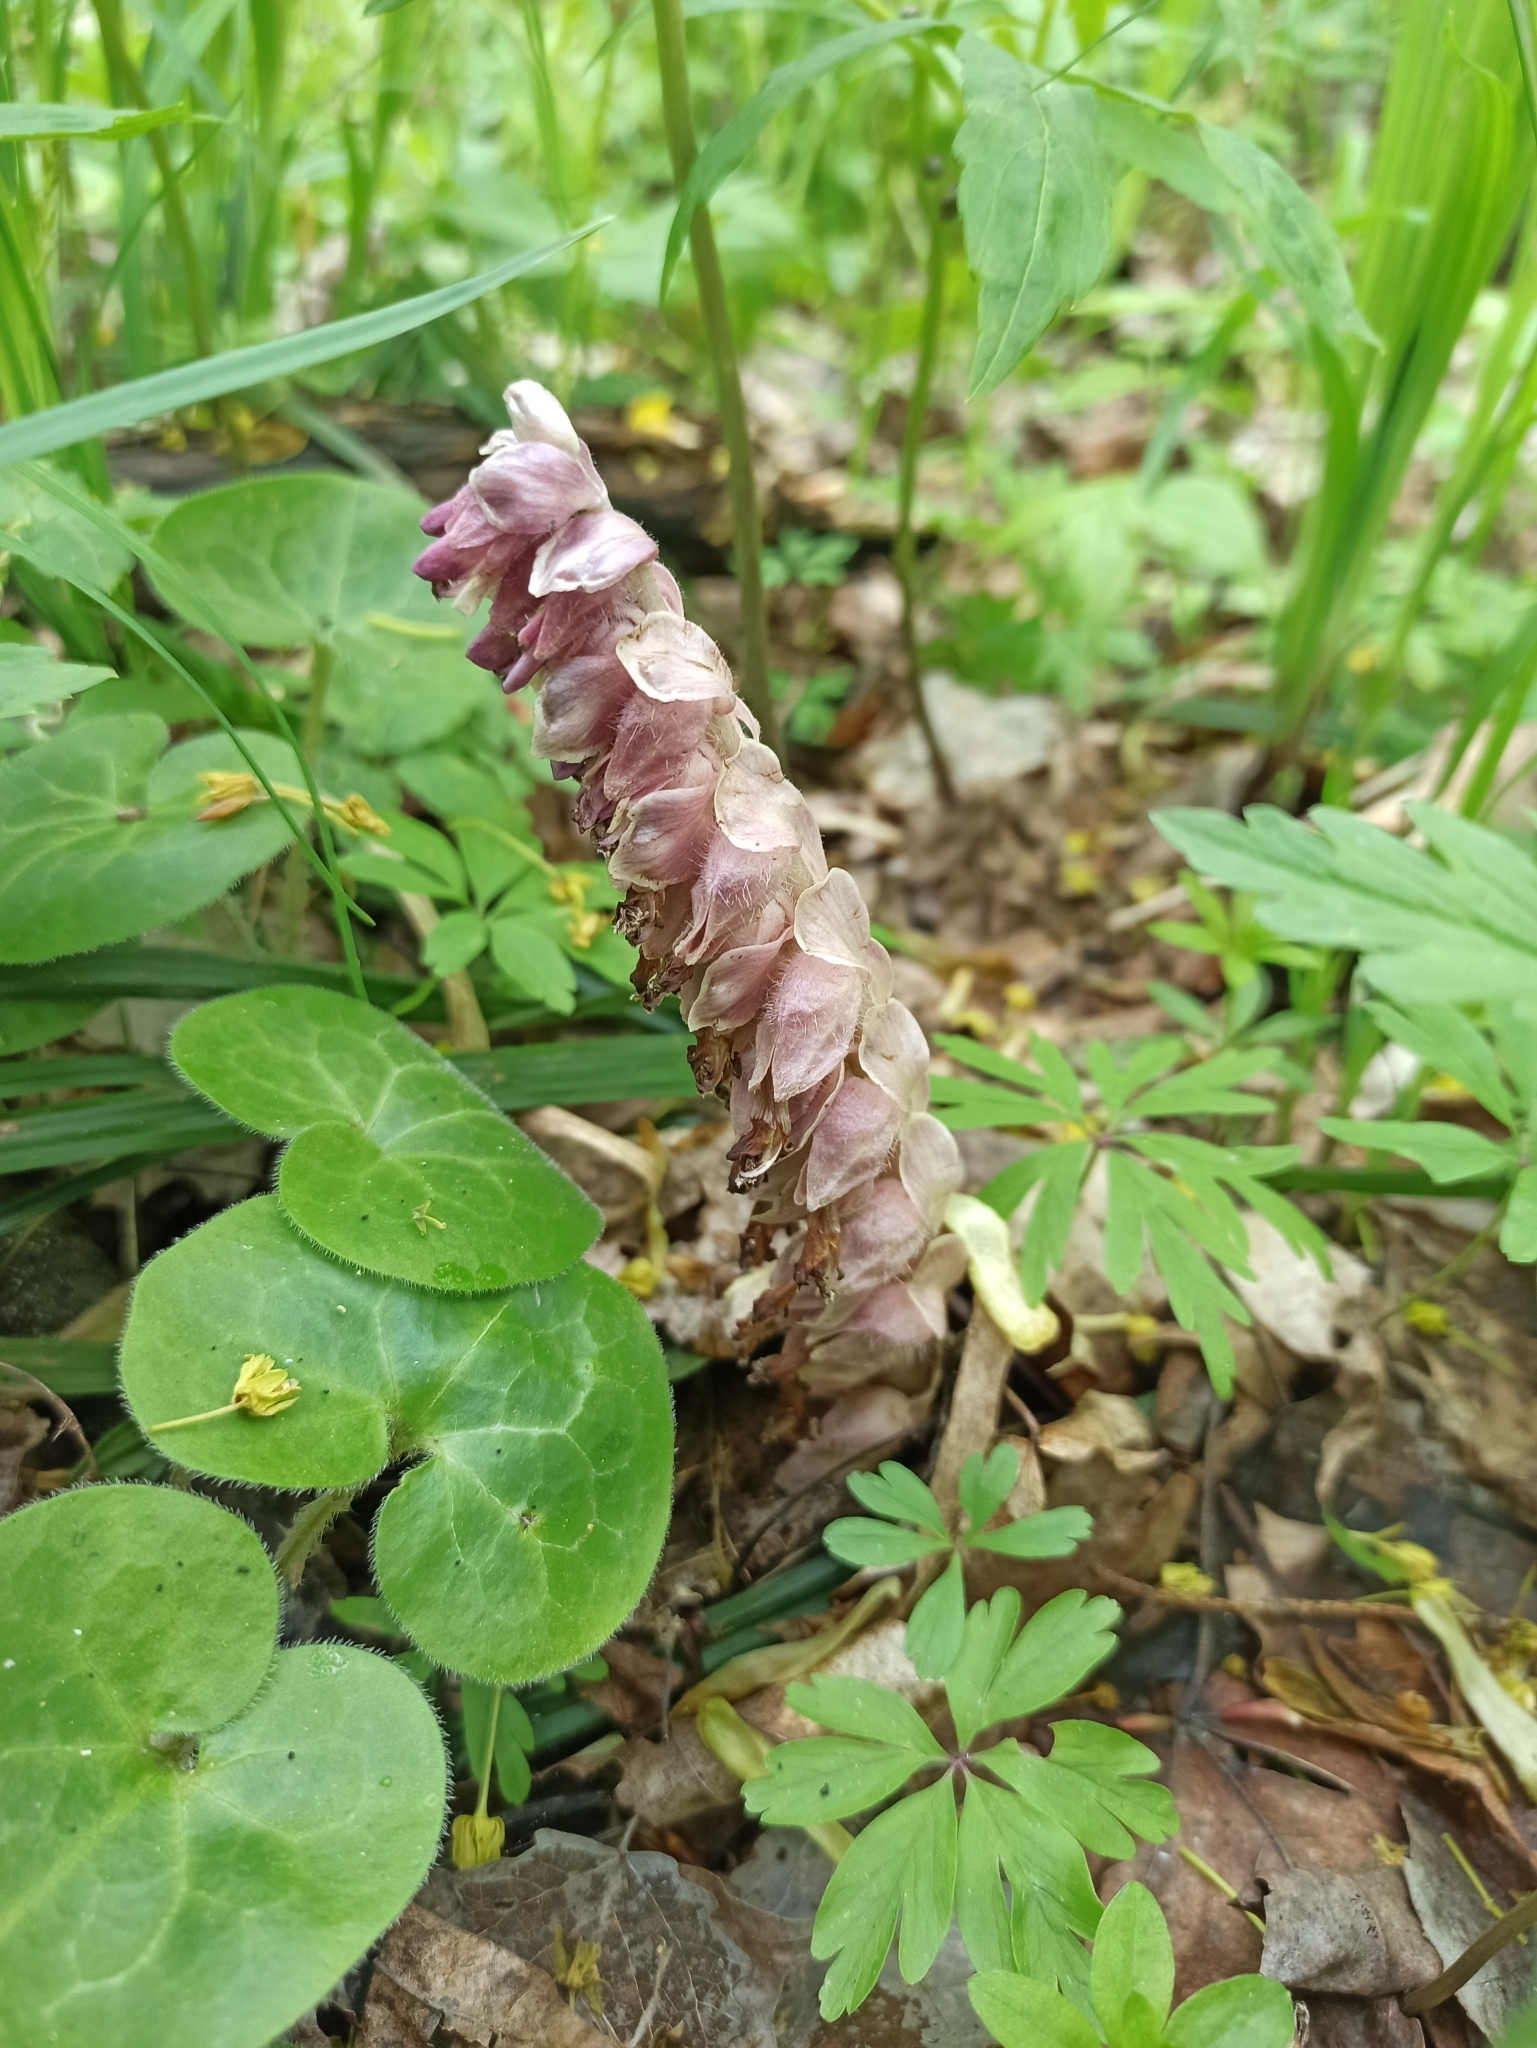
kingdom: Plantae
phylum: Tracheophyta
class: Magnoliopsida
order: Lamiales
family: Orobanchaceae
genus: Lathraea
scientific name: Lathraea squamaria
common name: Toothwort
